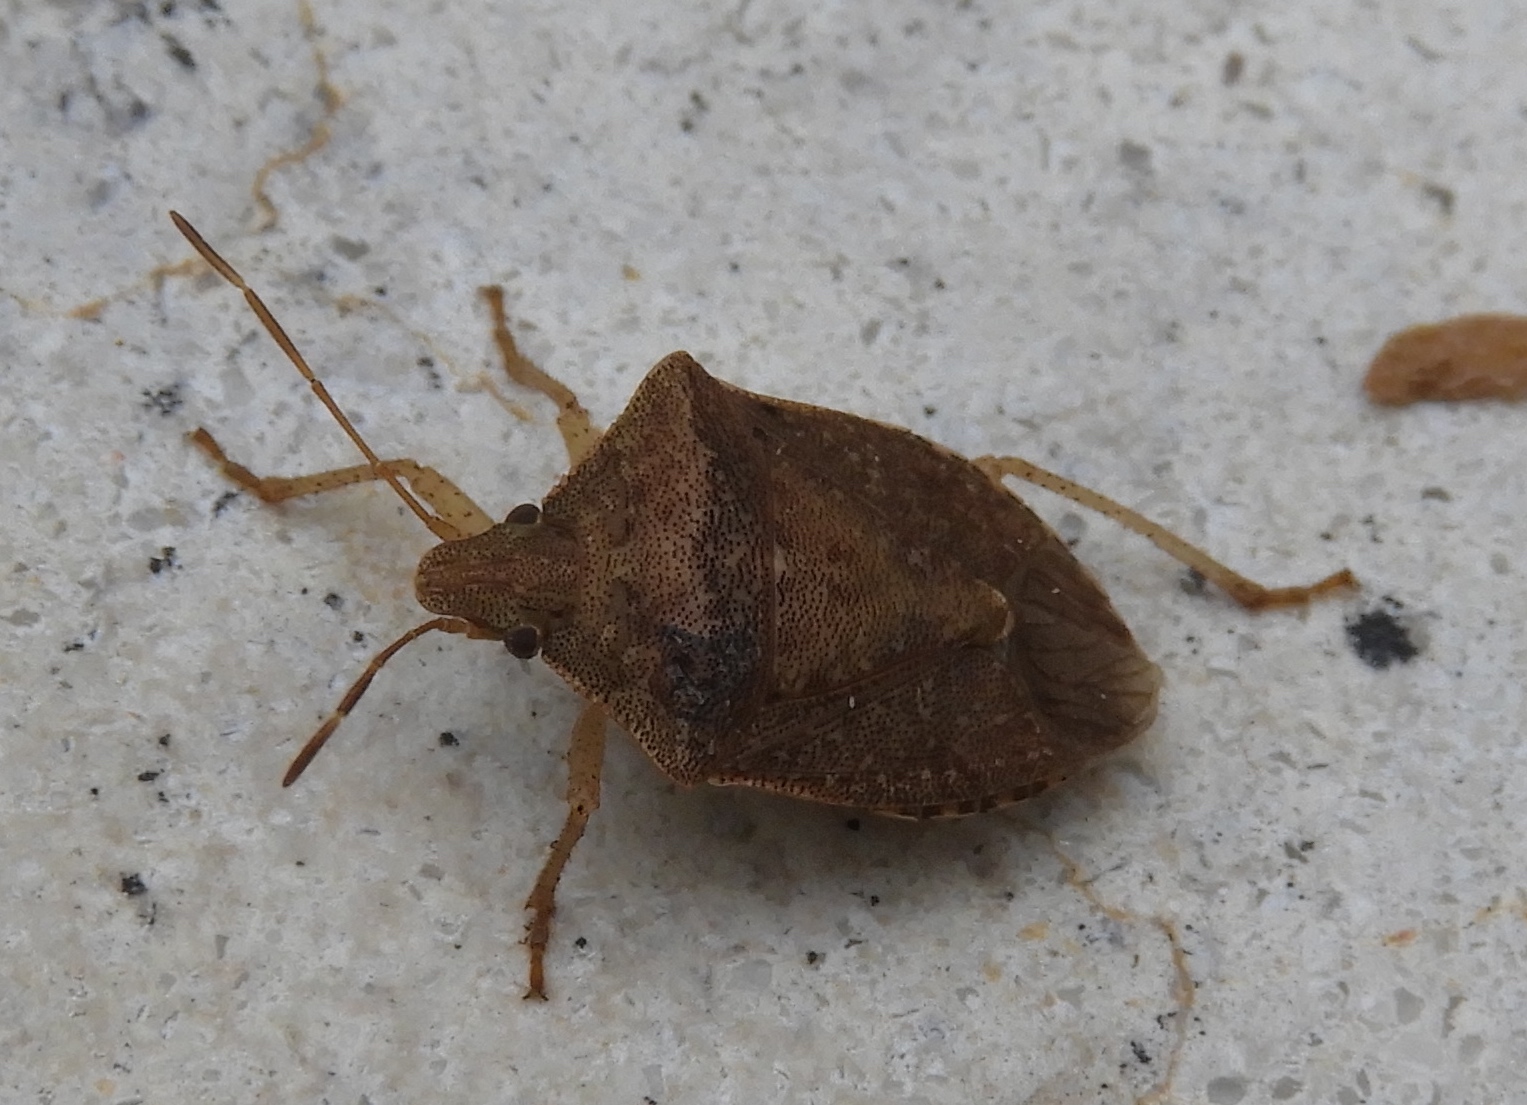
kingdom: Animalia
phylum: Arthropoda
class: Insecta
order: Hemiptera
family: Pentatomidae
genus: Euschistus
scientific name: Euschistus
